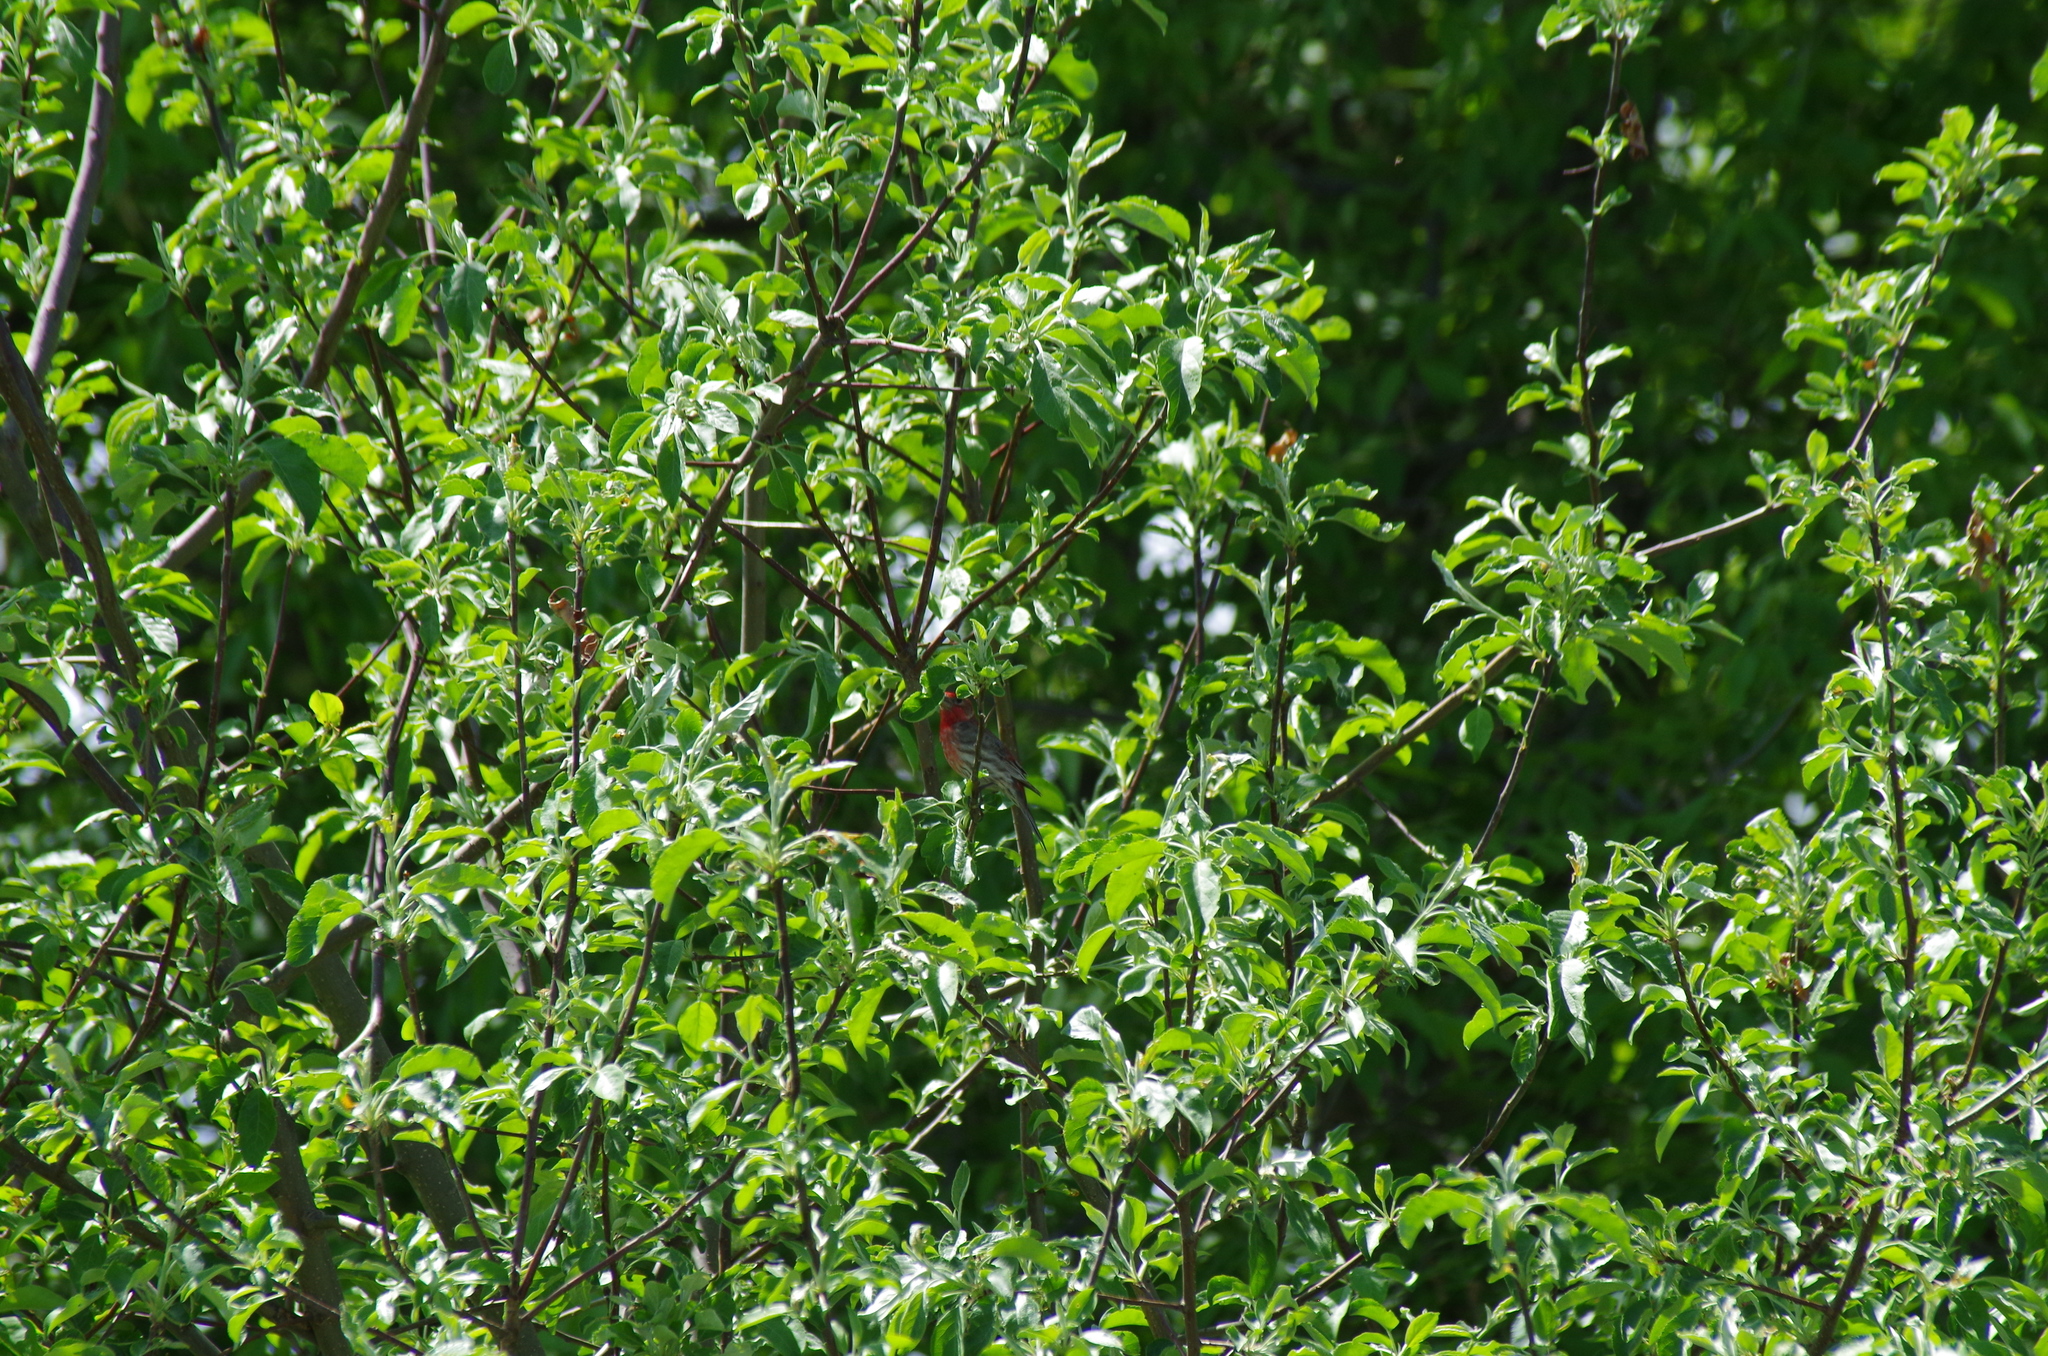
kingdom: Animalia
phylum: Chordata
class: Aves
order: Passeriformes
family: Fringillidae
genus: Haemorhous
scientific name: Haemorhous mexicanus
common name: House finch
